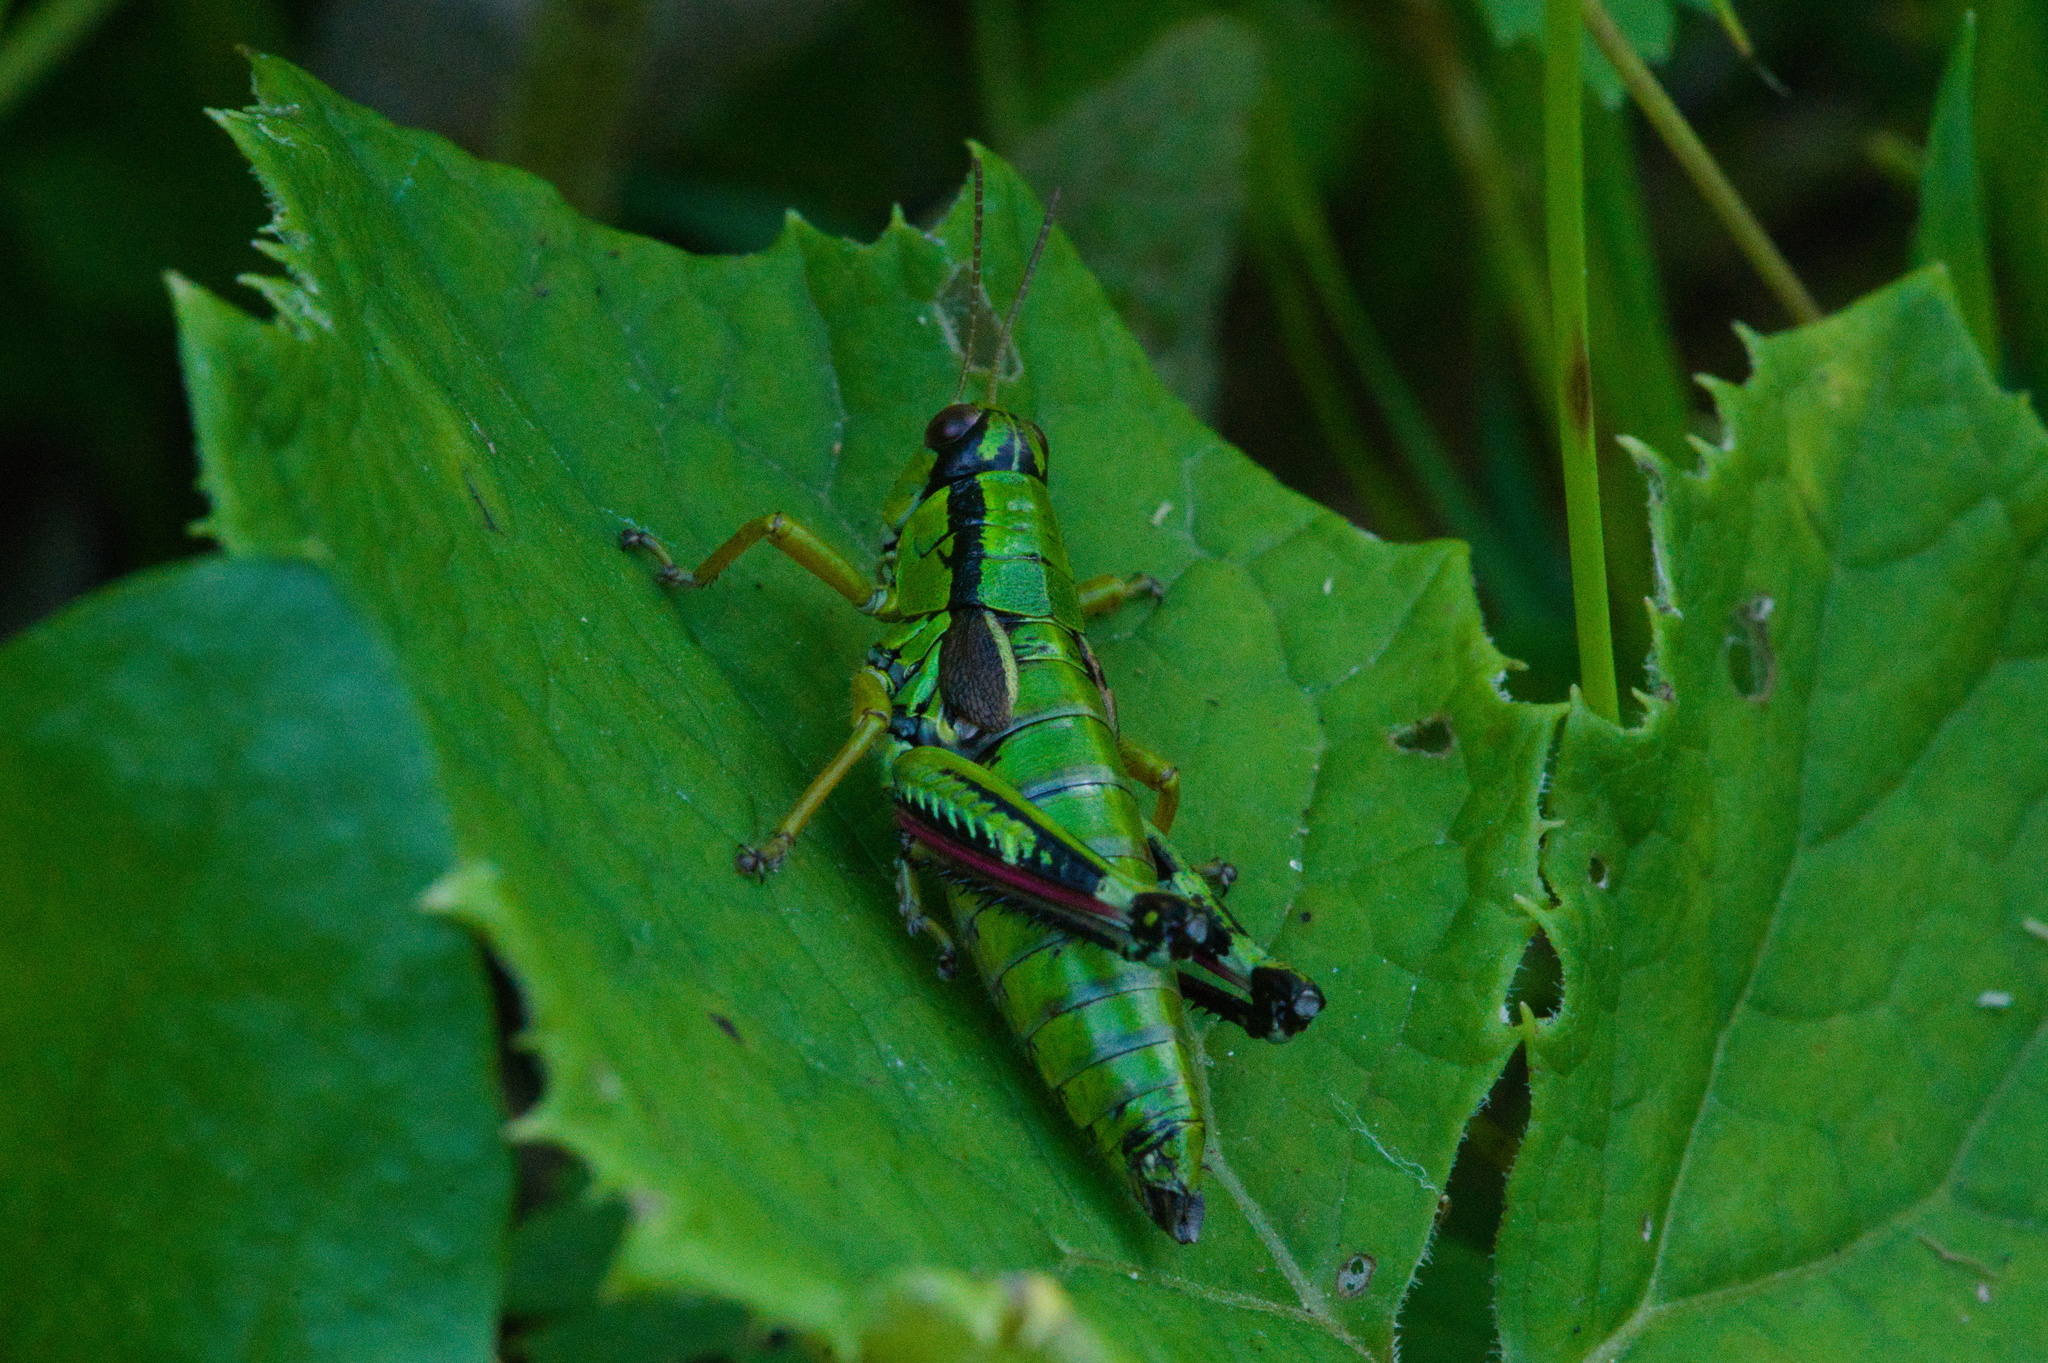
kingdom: Animalia
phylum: Arthropoda
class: Insecta
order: Orthoptera
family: Acrididae
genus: Miramella
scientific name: Miramella alpina
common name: Green mountain grasshopper
